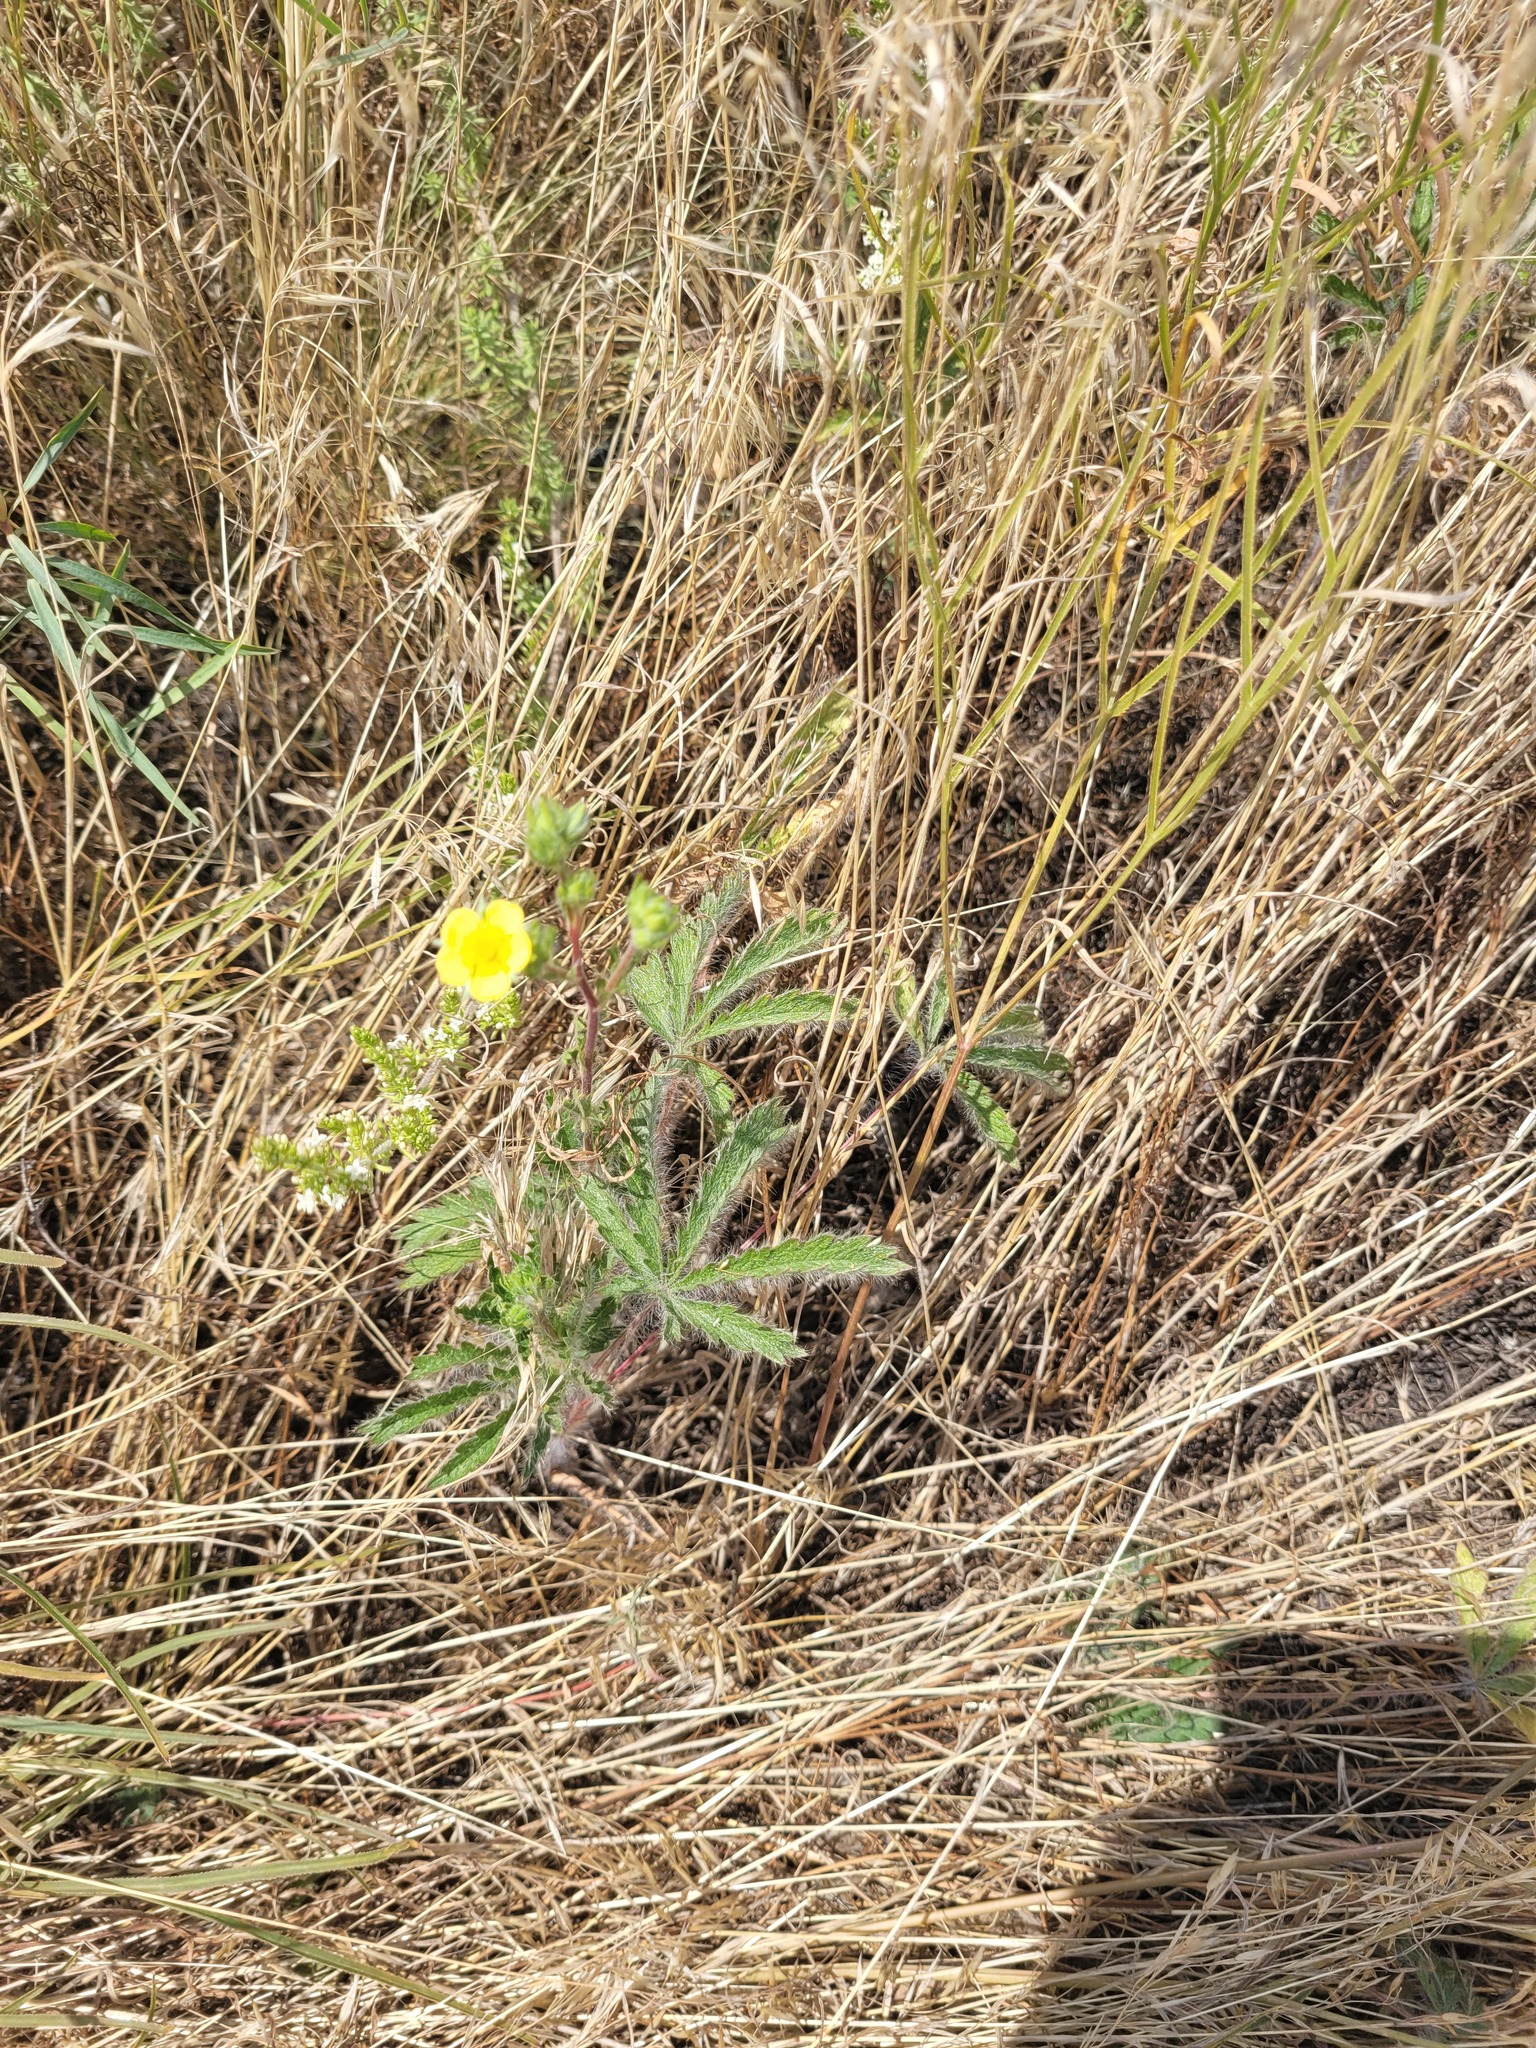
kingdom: Plantae
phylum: Tracheophyta
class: Magnoliopsida
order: Rosales
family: Rosaceae
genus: Potentilla
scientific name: Potentilla recta
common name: Sulphur cinquefoil
